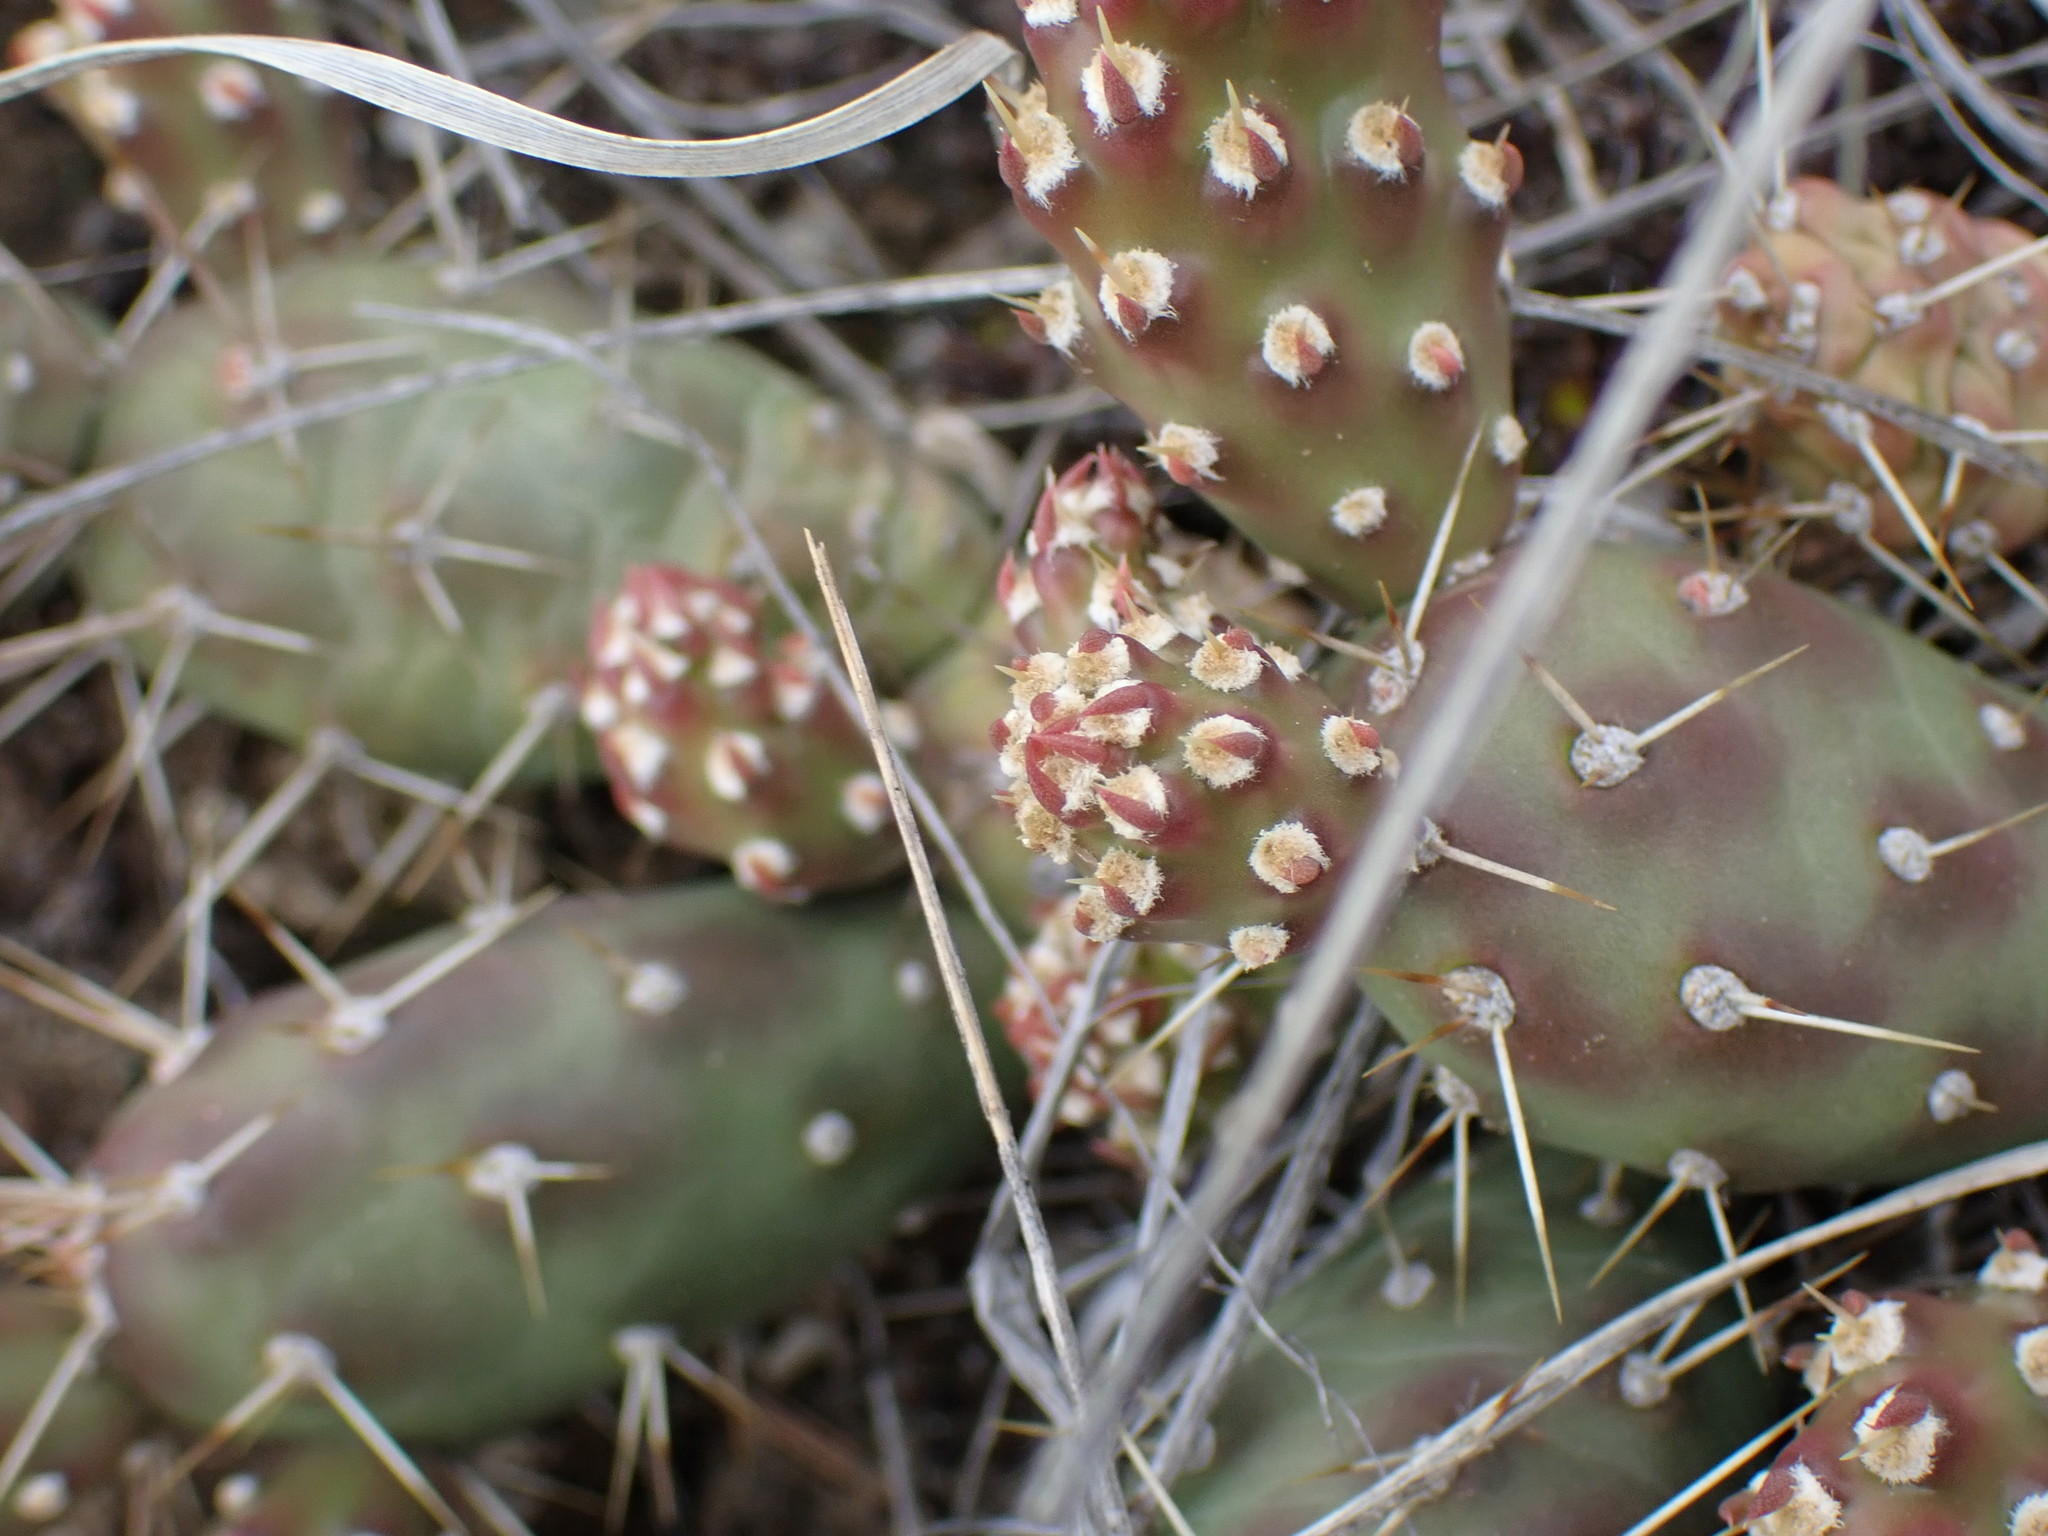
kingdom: Plantae
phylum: Tracheophyta
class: Magnoliopsida
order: Caryophyllales
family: Cactaceae
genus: Opuntia
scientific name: Opuntia fragilis
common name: Brittle cactus
